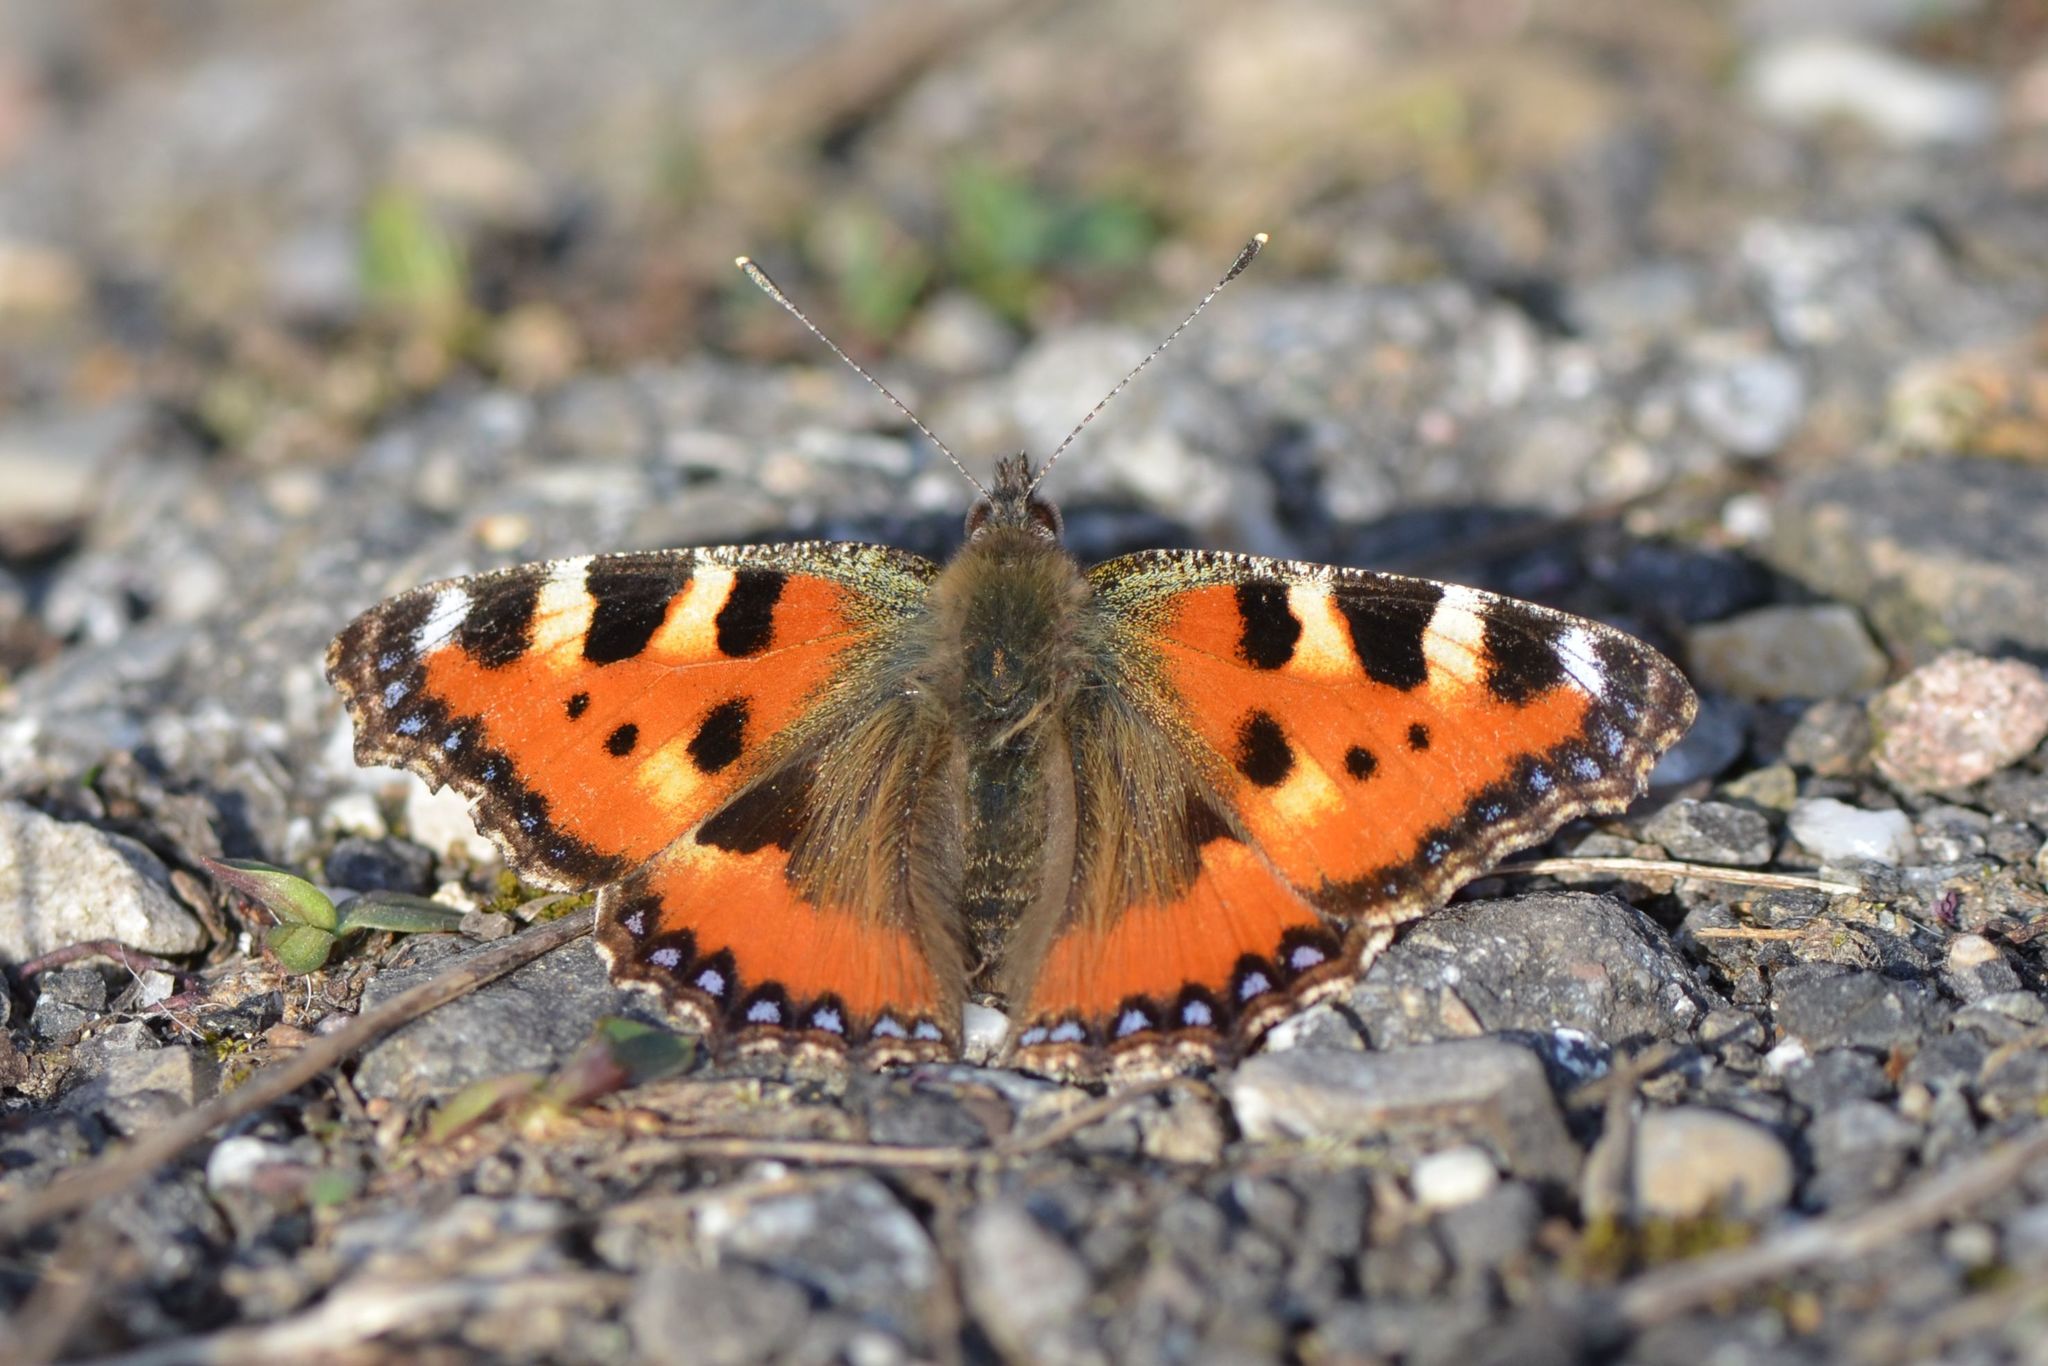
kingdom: Animalia
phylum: Arthropoda
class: Insecta
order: Lepidoptera
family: Nymphalidae
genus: Aglais
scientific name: Aglais urticae
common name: Small tortoiseshell
